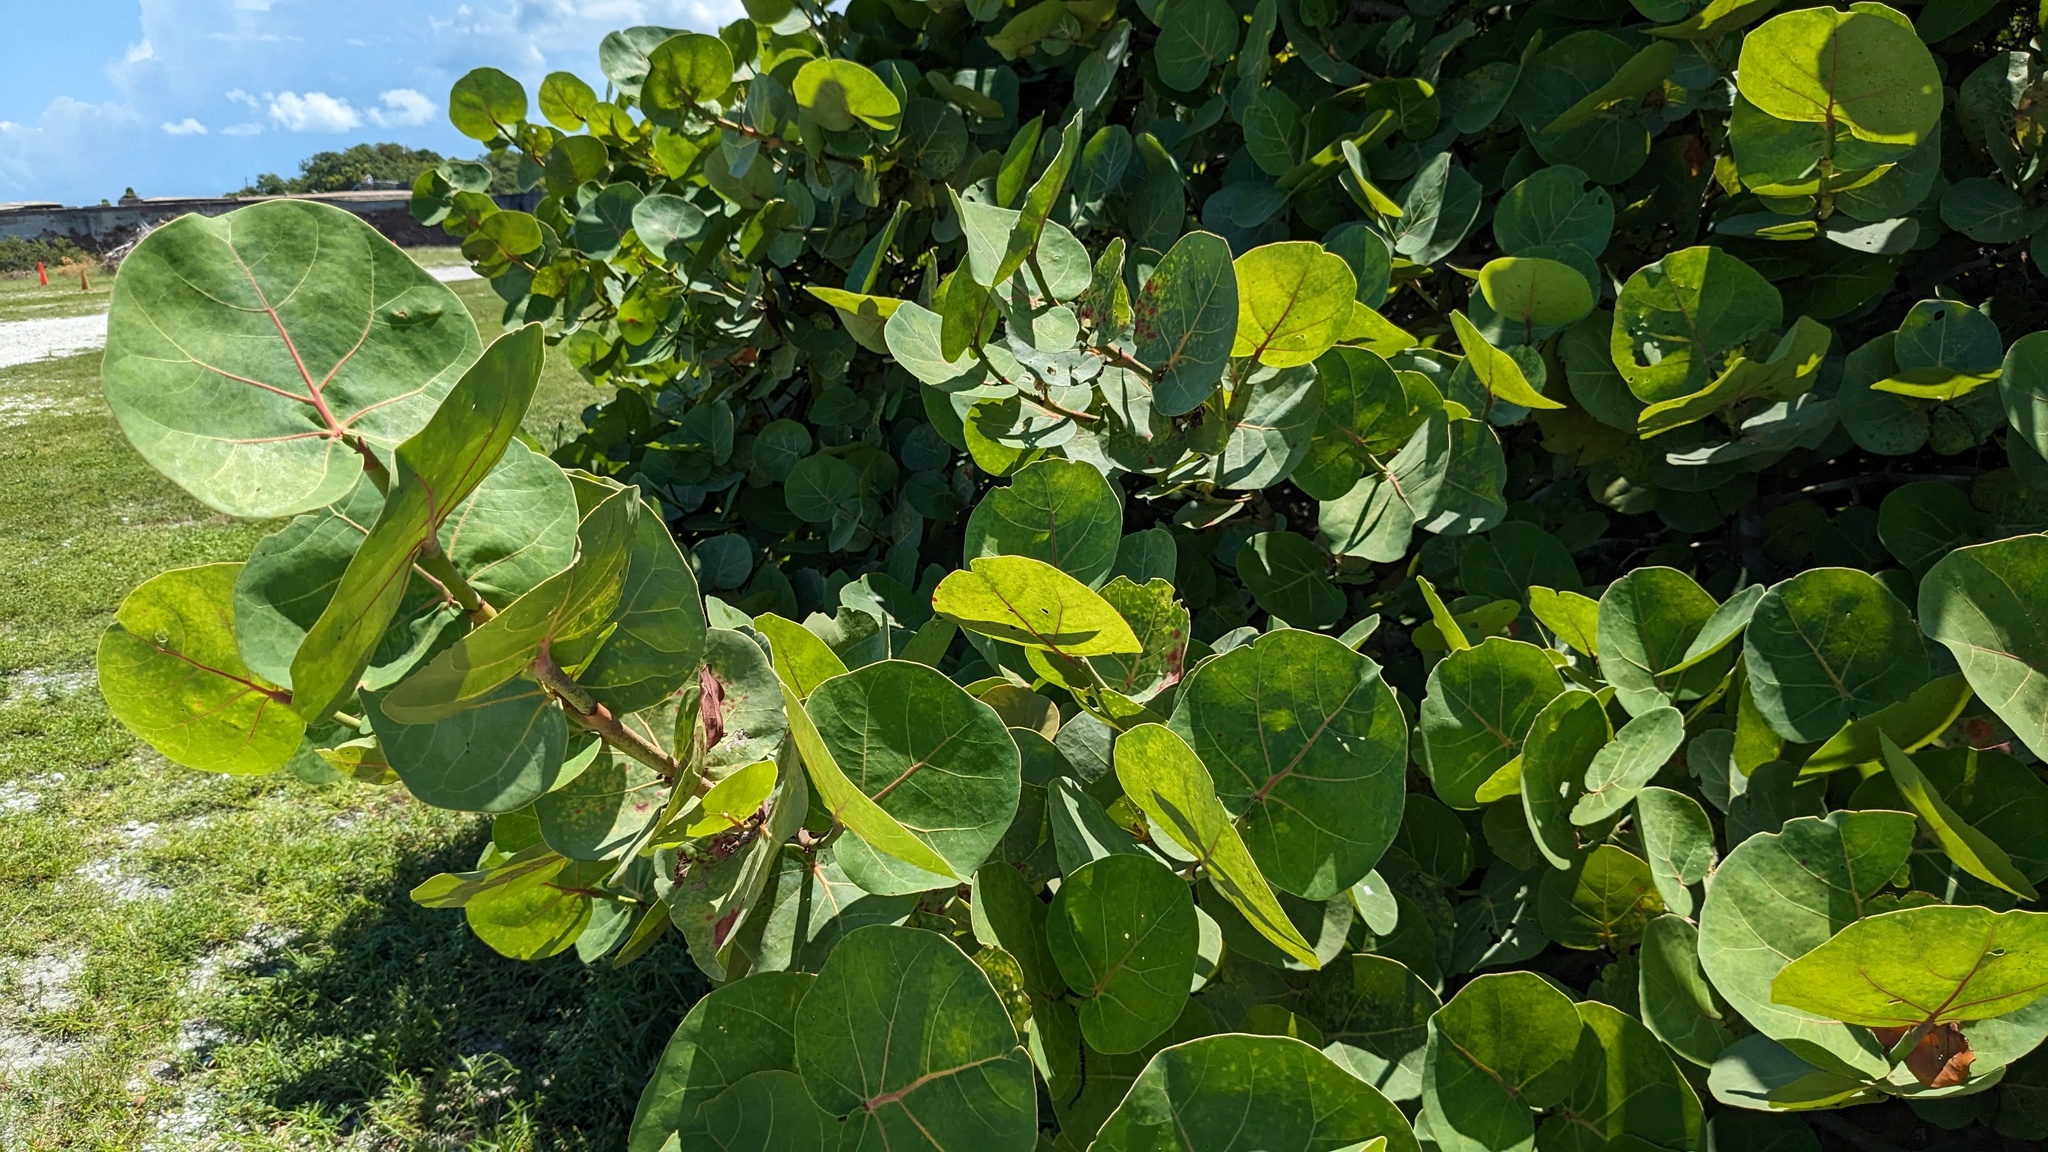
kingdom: Plantae
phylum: Tracheophyta
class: Magnoliopsida
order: Caryophyllales
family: Polygonaceae
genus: Coccoloba
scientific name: Coccoloba uvifera
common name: Seagrape
